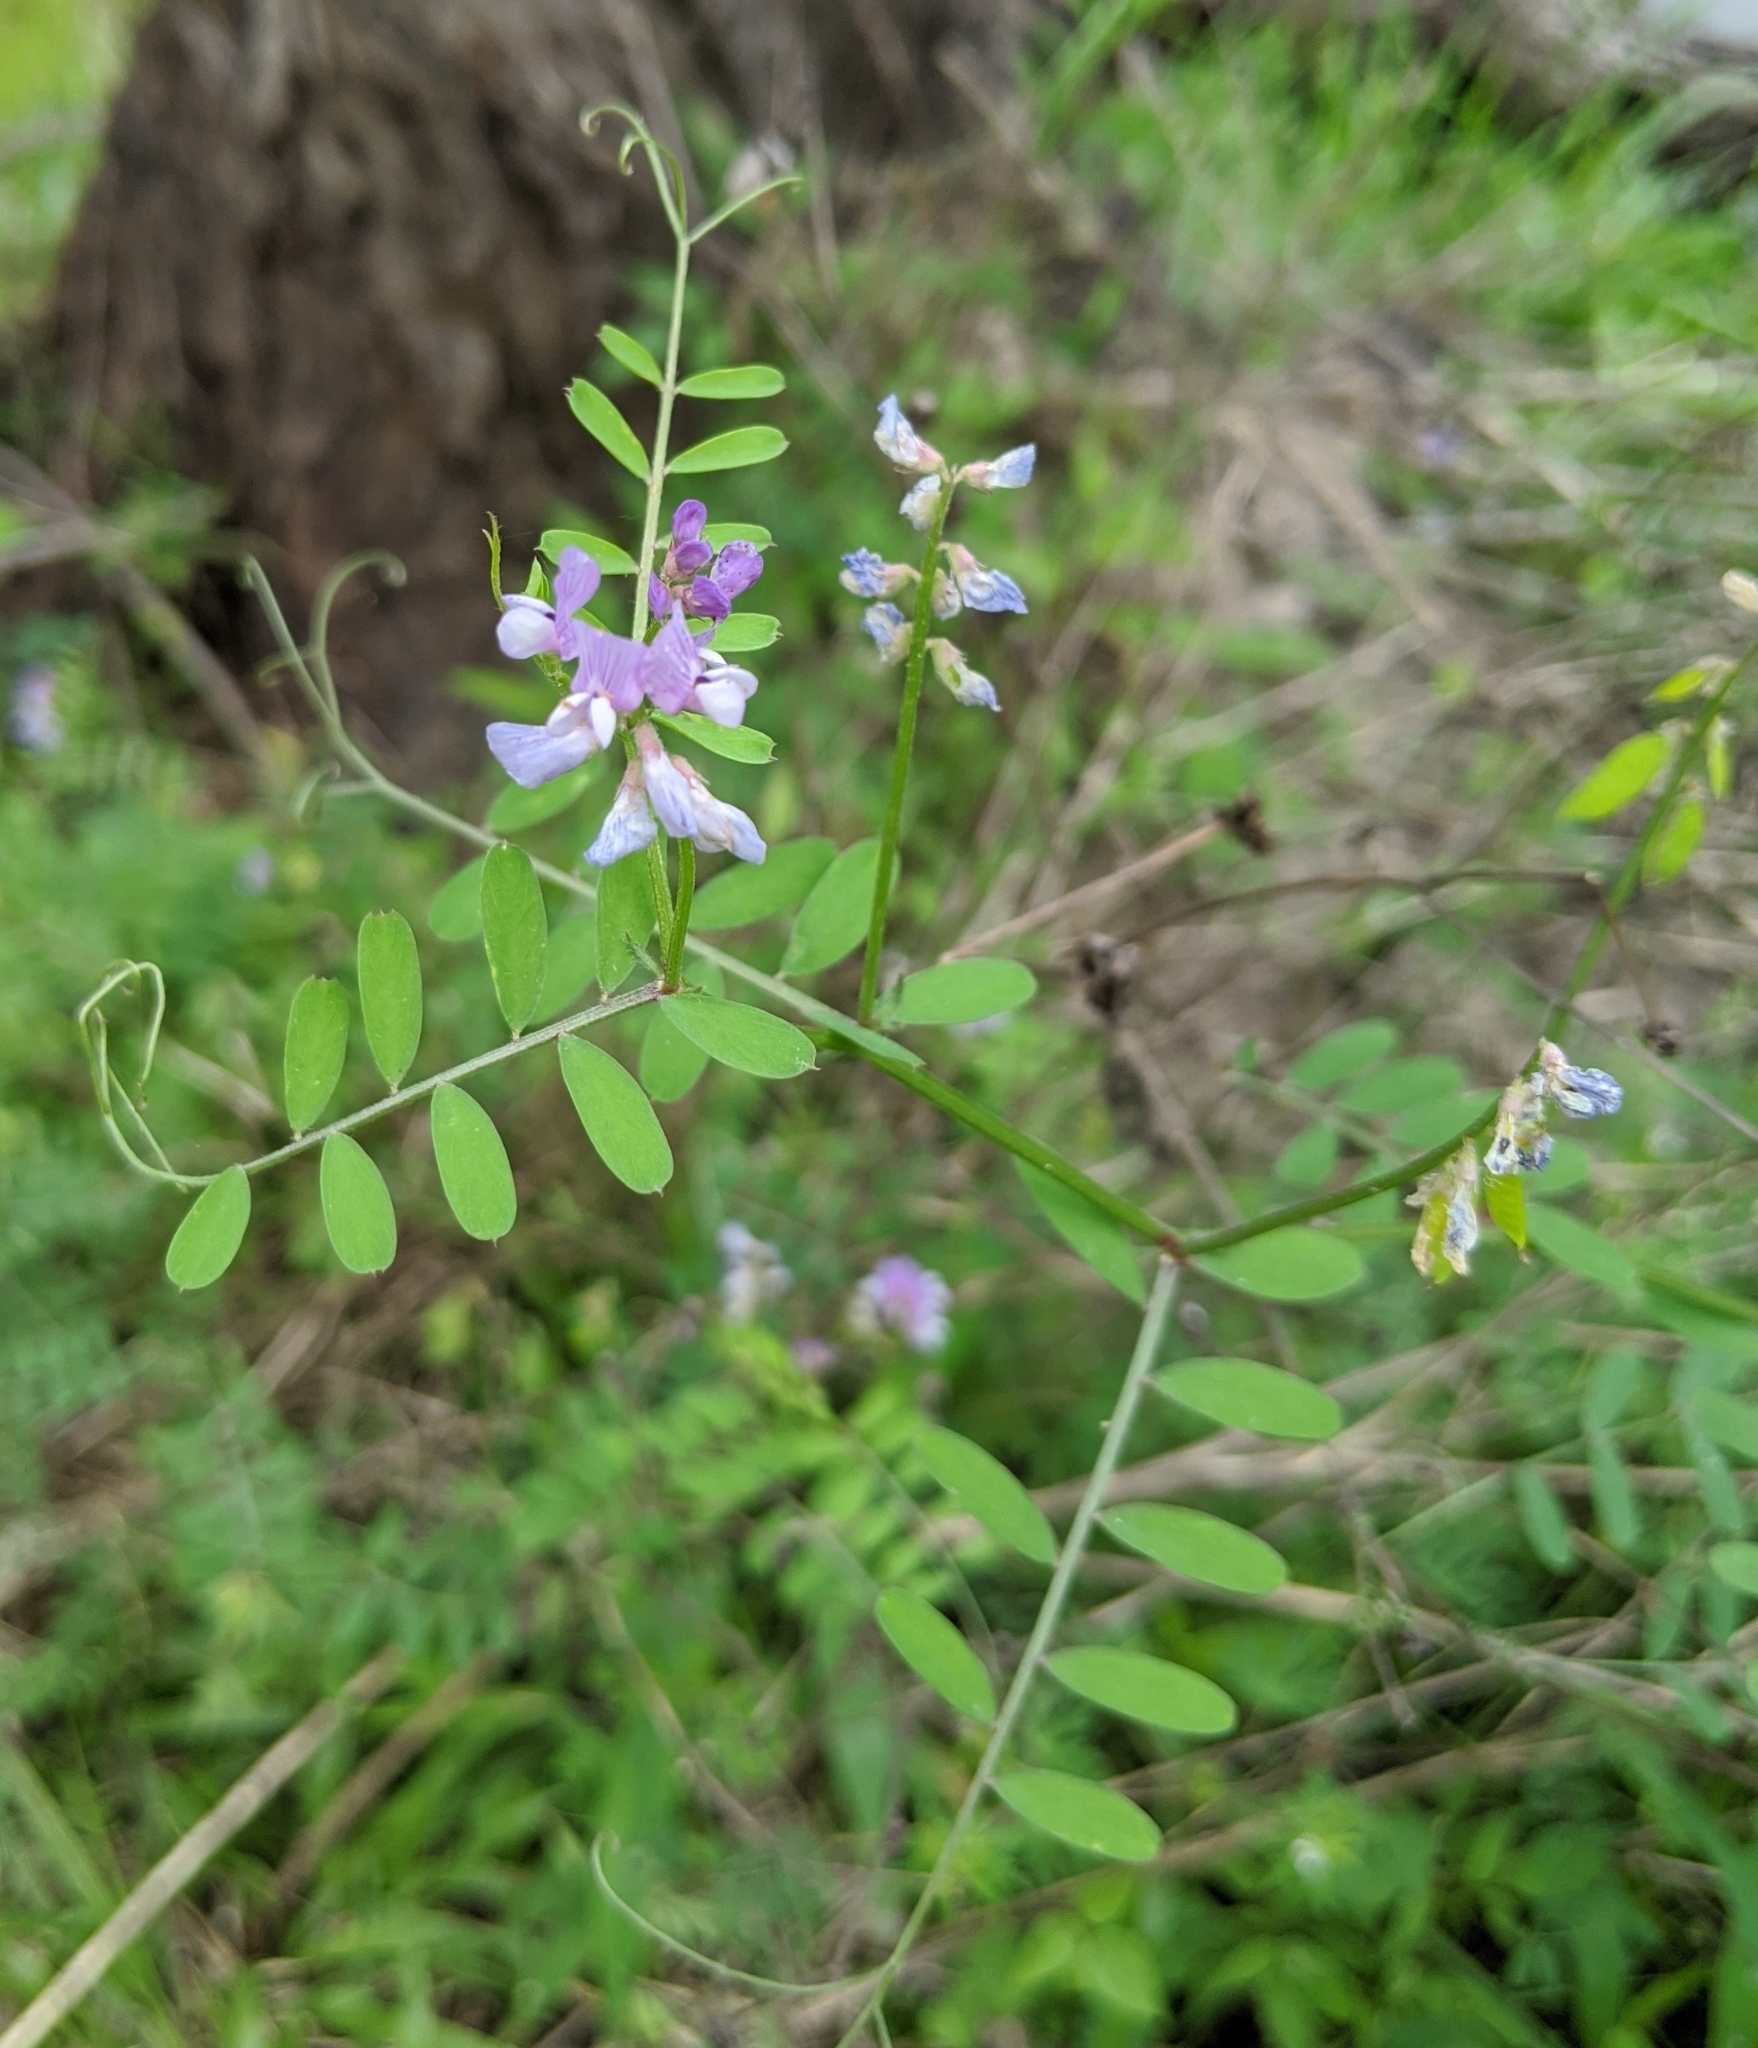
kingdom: Plantae
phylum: Tracheophyta
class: Magnoliopsida
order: Fabales
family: Fabaceae
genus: Vicia
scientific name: Vicia ludoviciana
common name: Louisiana vetch
